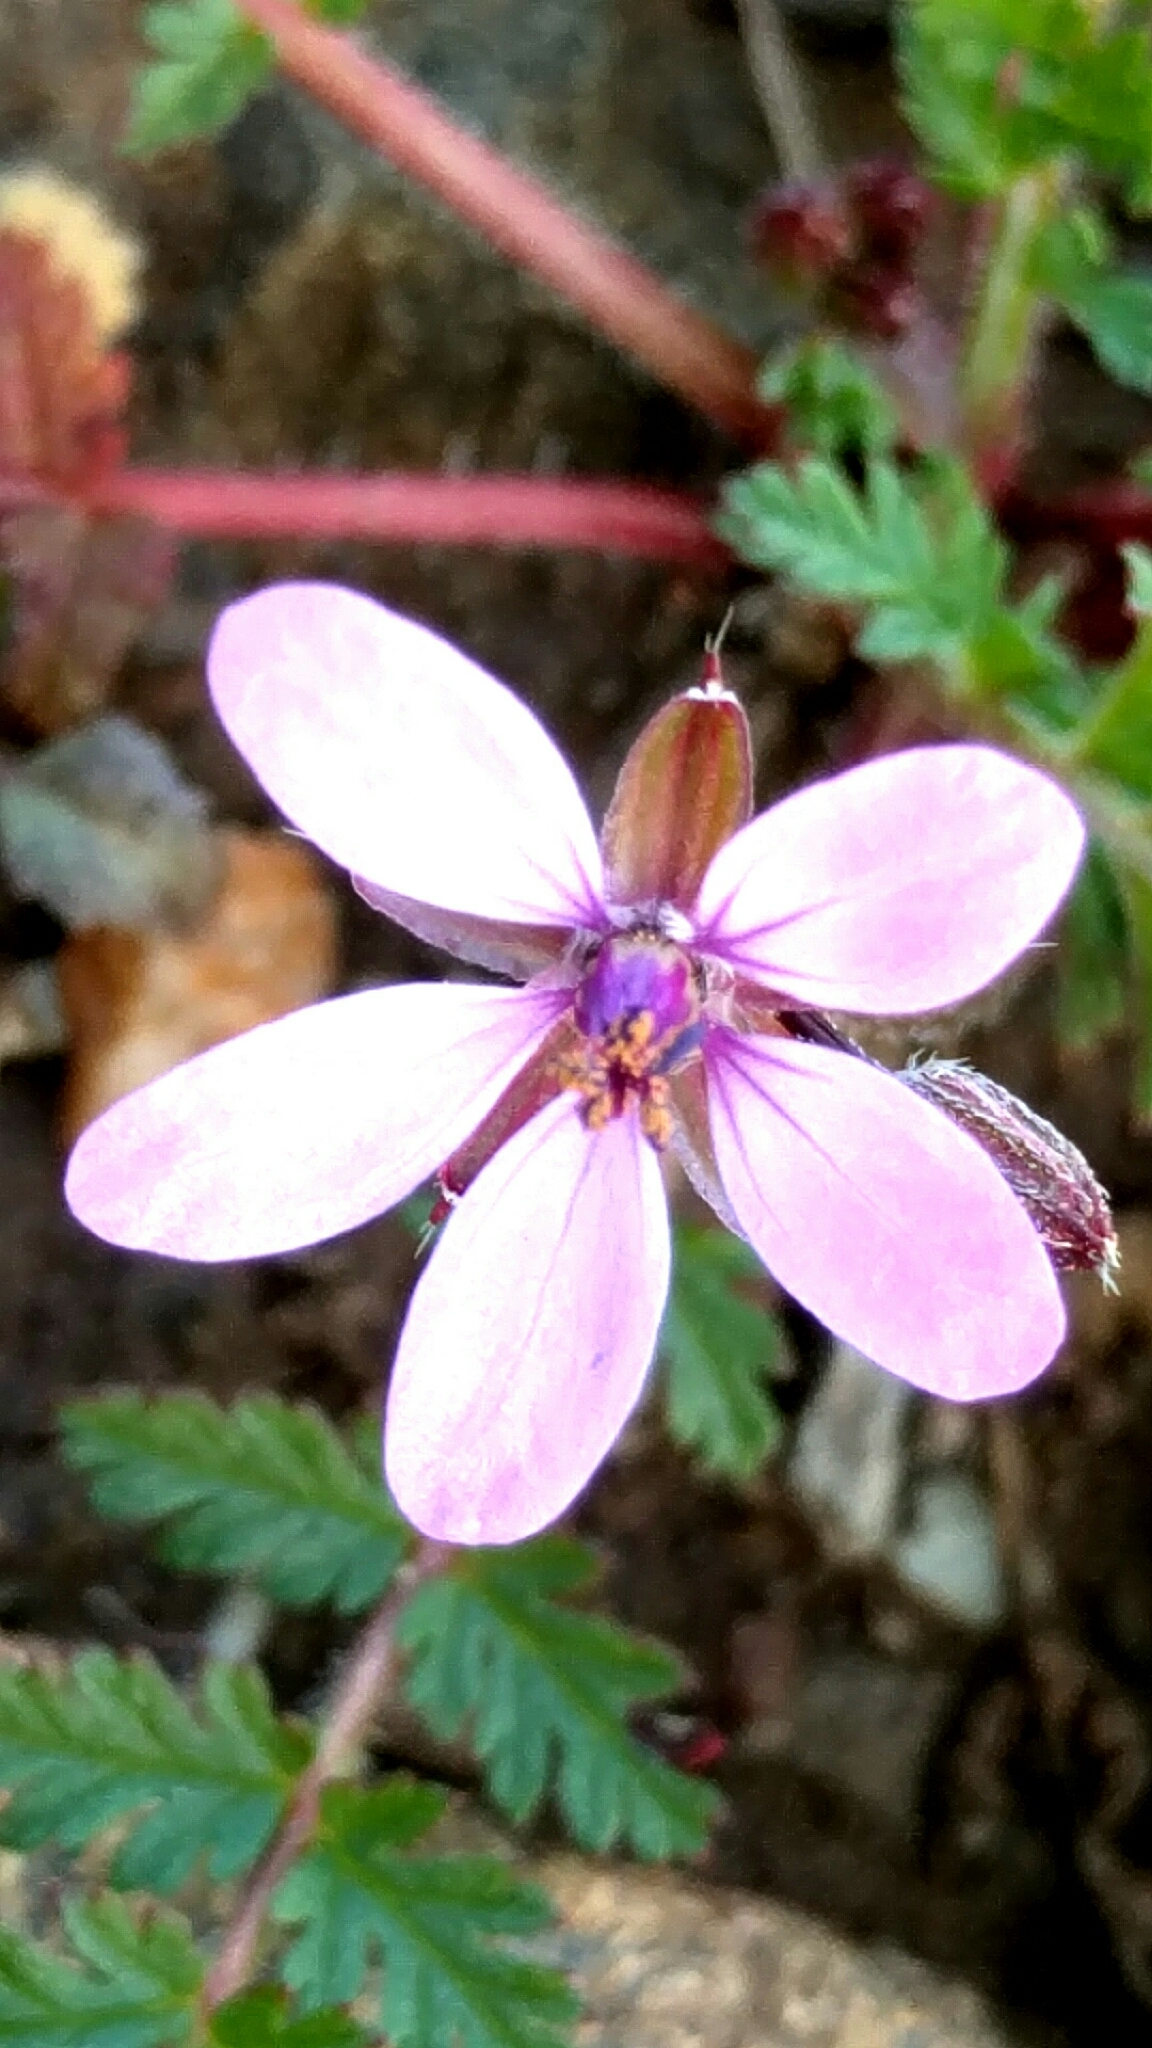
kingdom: Plantae
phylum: Tracheophyta
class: Magnoliopsida
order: Geraniales
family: Geraniaceae
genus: Erodium
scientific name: Erodium cicutarium
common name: Common stork's-bill
